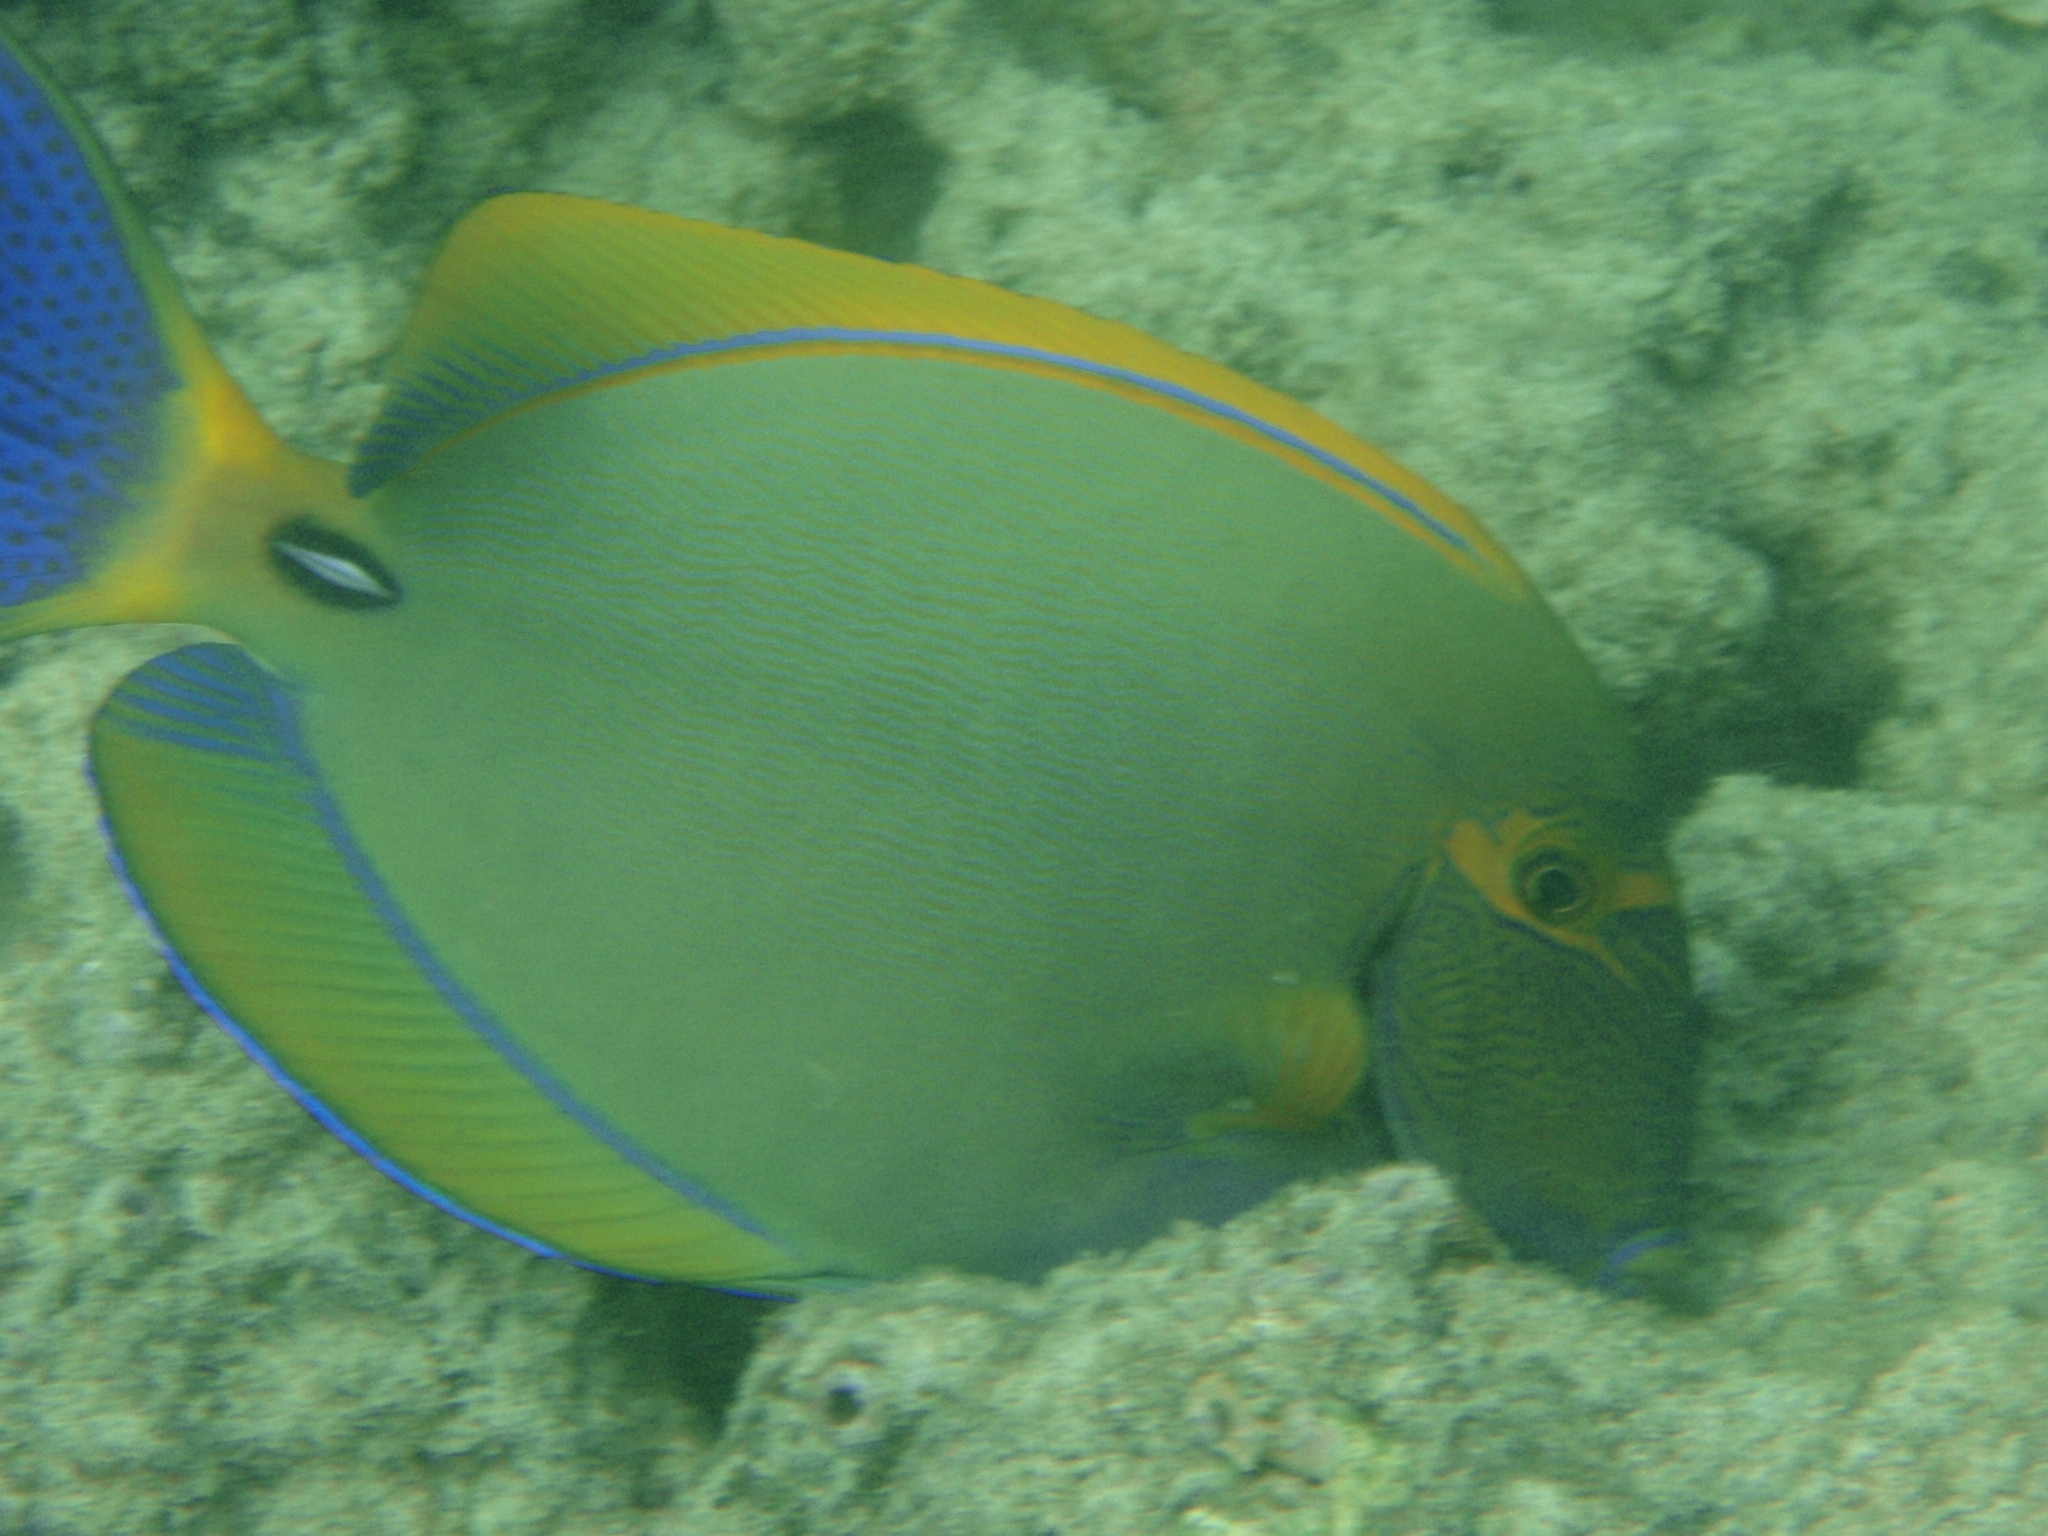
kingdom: Animalia
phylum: Chordata
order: Perciformes
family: Acanthuridae
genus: Acanthurus
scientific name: Acanthurus dussumieri
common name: Dussumier's surgeonfish
